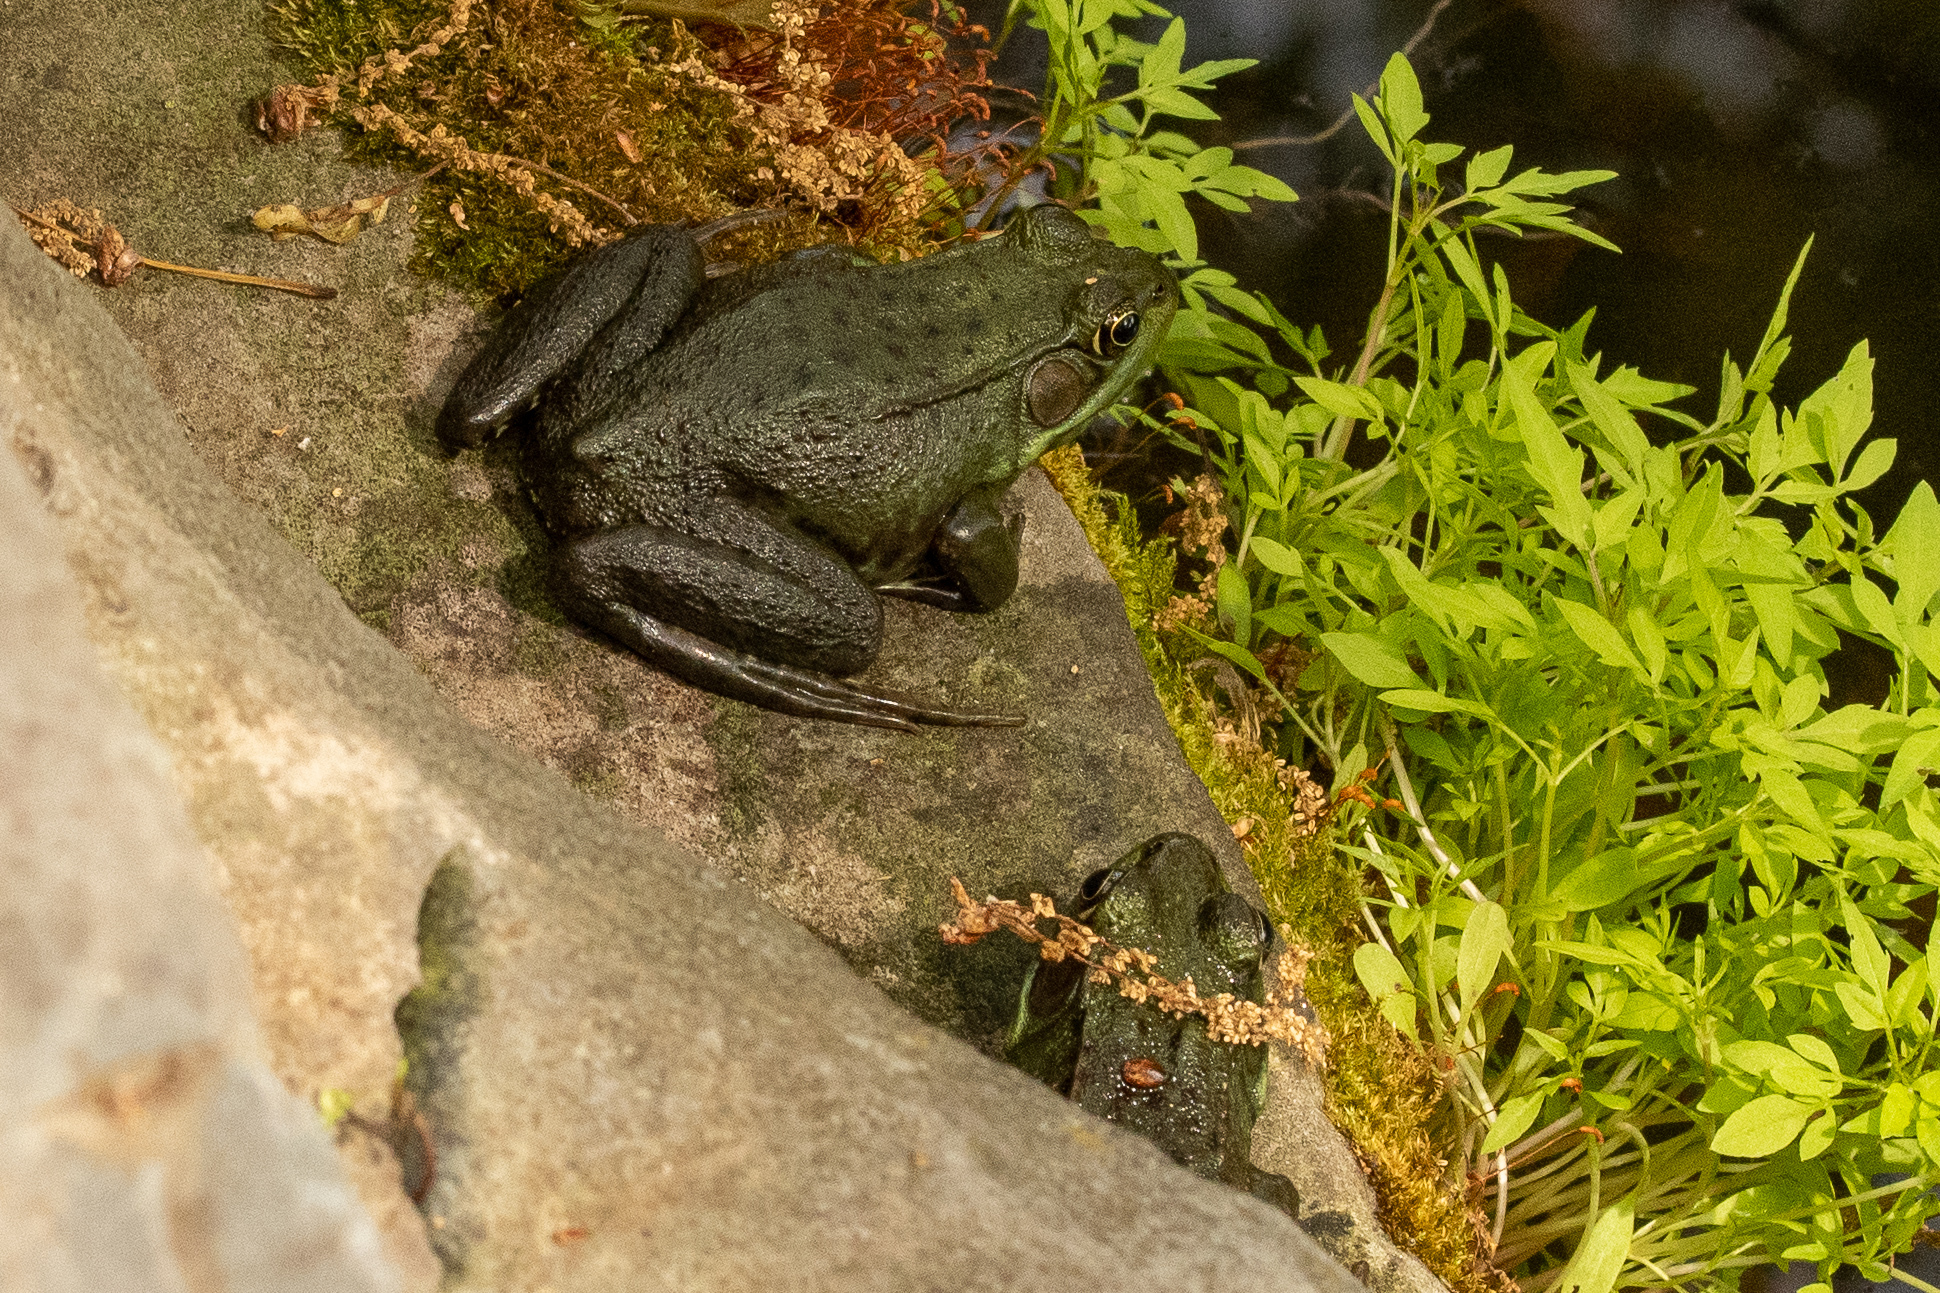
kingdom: Animalia
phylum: Chordata
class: Amphibia
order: Anura
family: Ranidae
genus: Lithobates
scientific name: Lithobates clamitans
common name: Green frog
